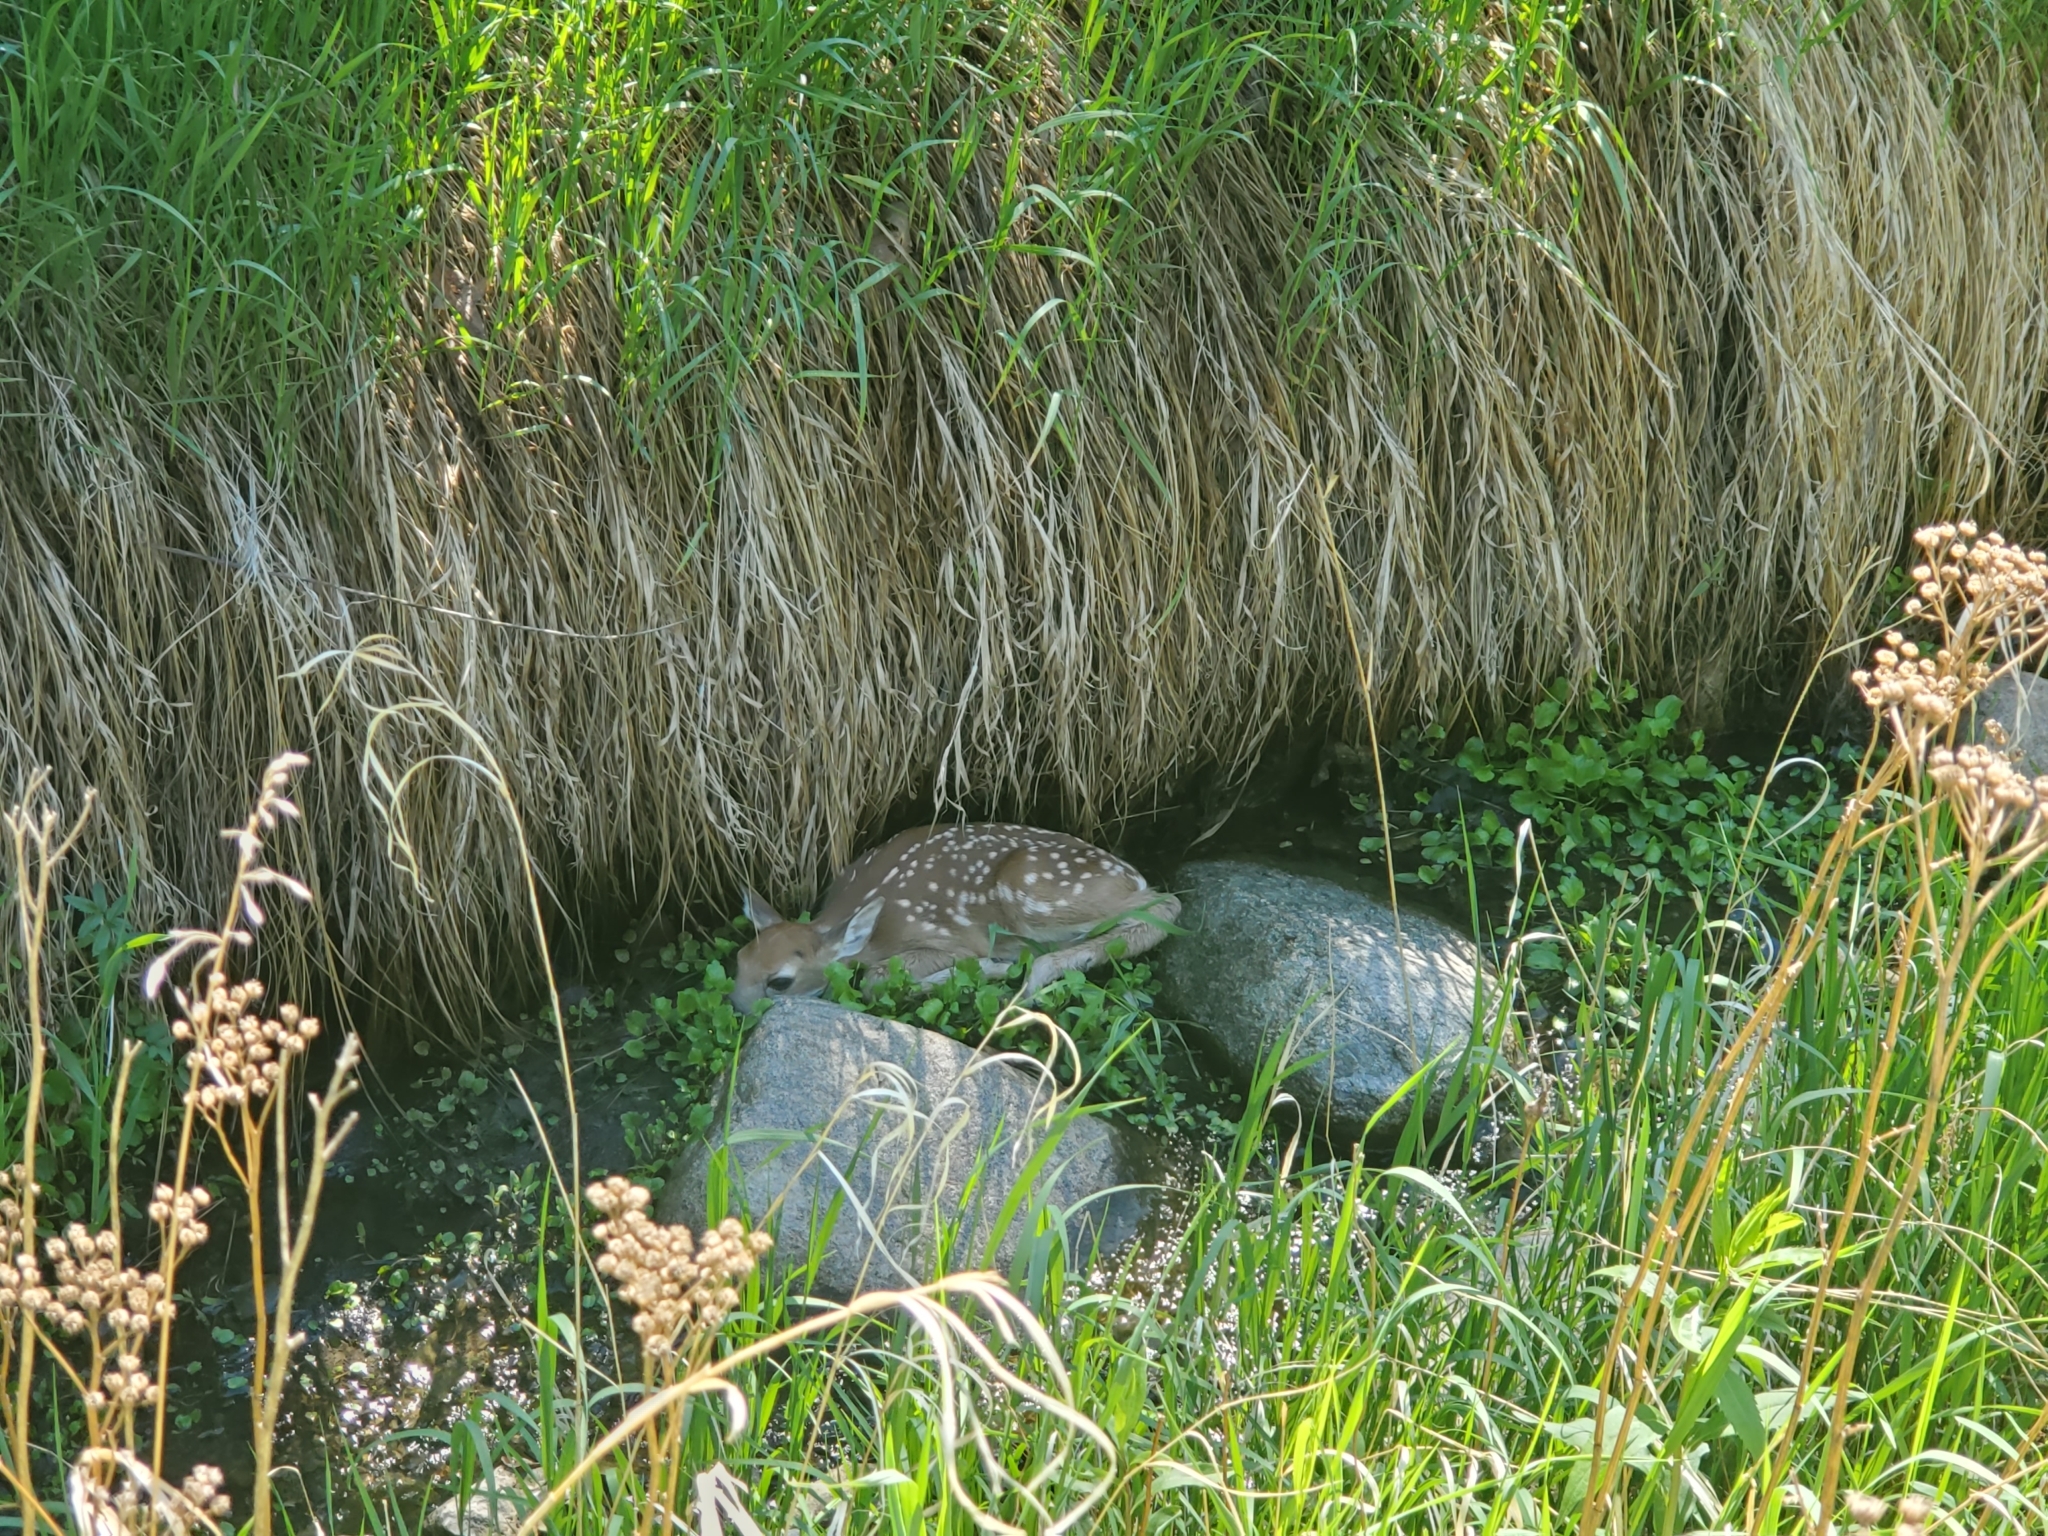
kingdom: Animalia
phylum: Chordata
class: Mammalia
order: Artiodactyla
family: Cervidae
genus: Odocoileus
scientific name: Odocoileus virginianus
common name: White-tailed deer
